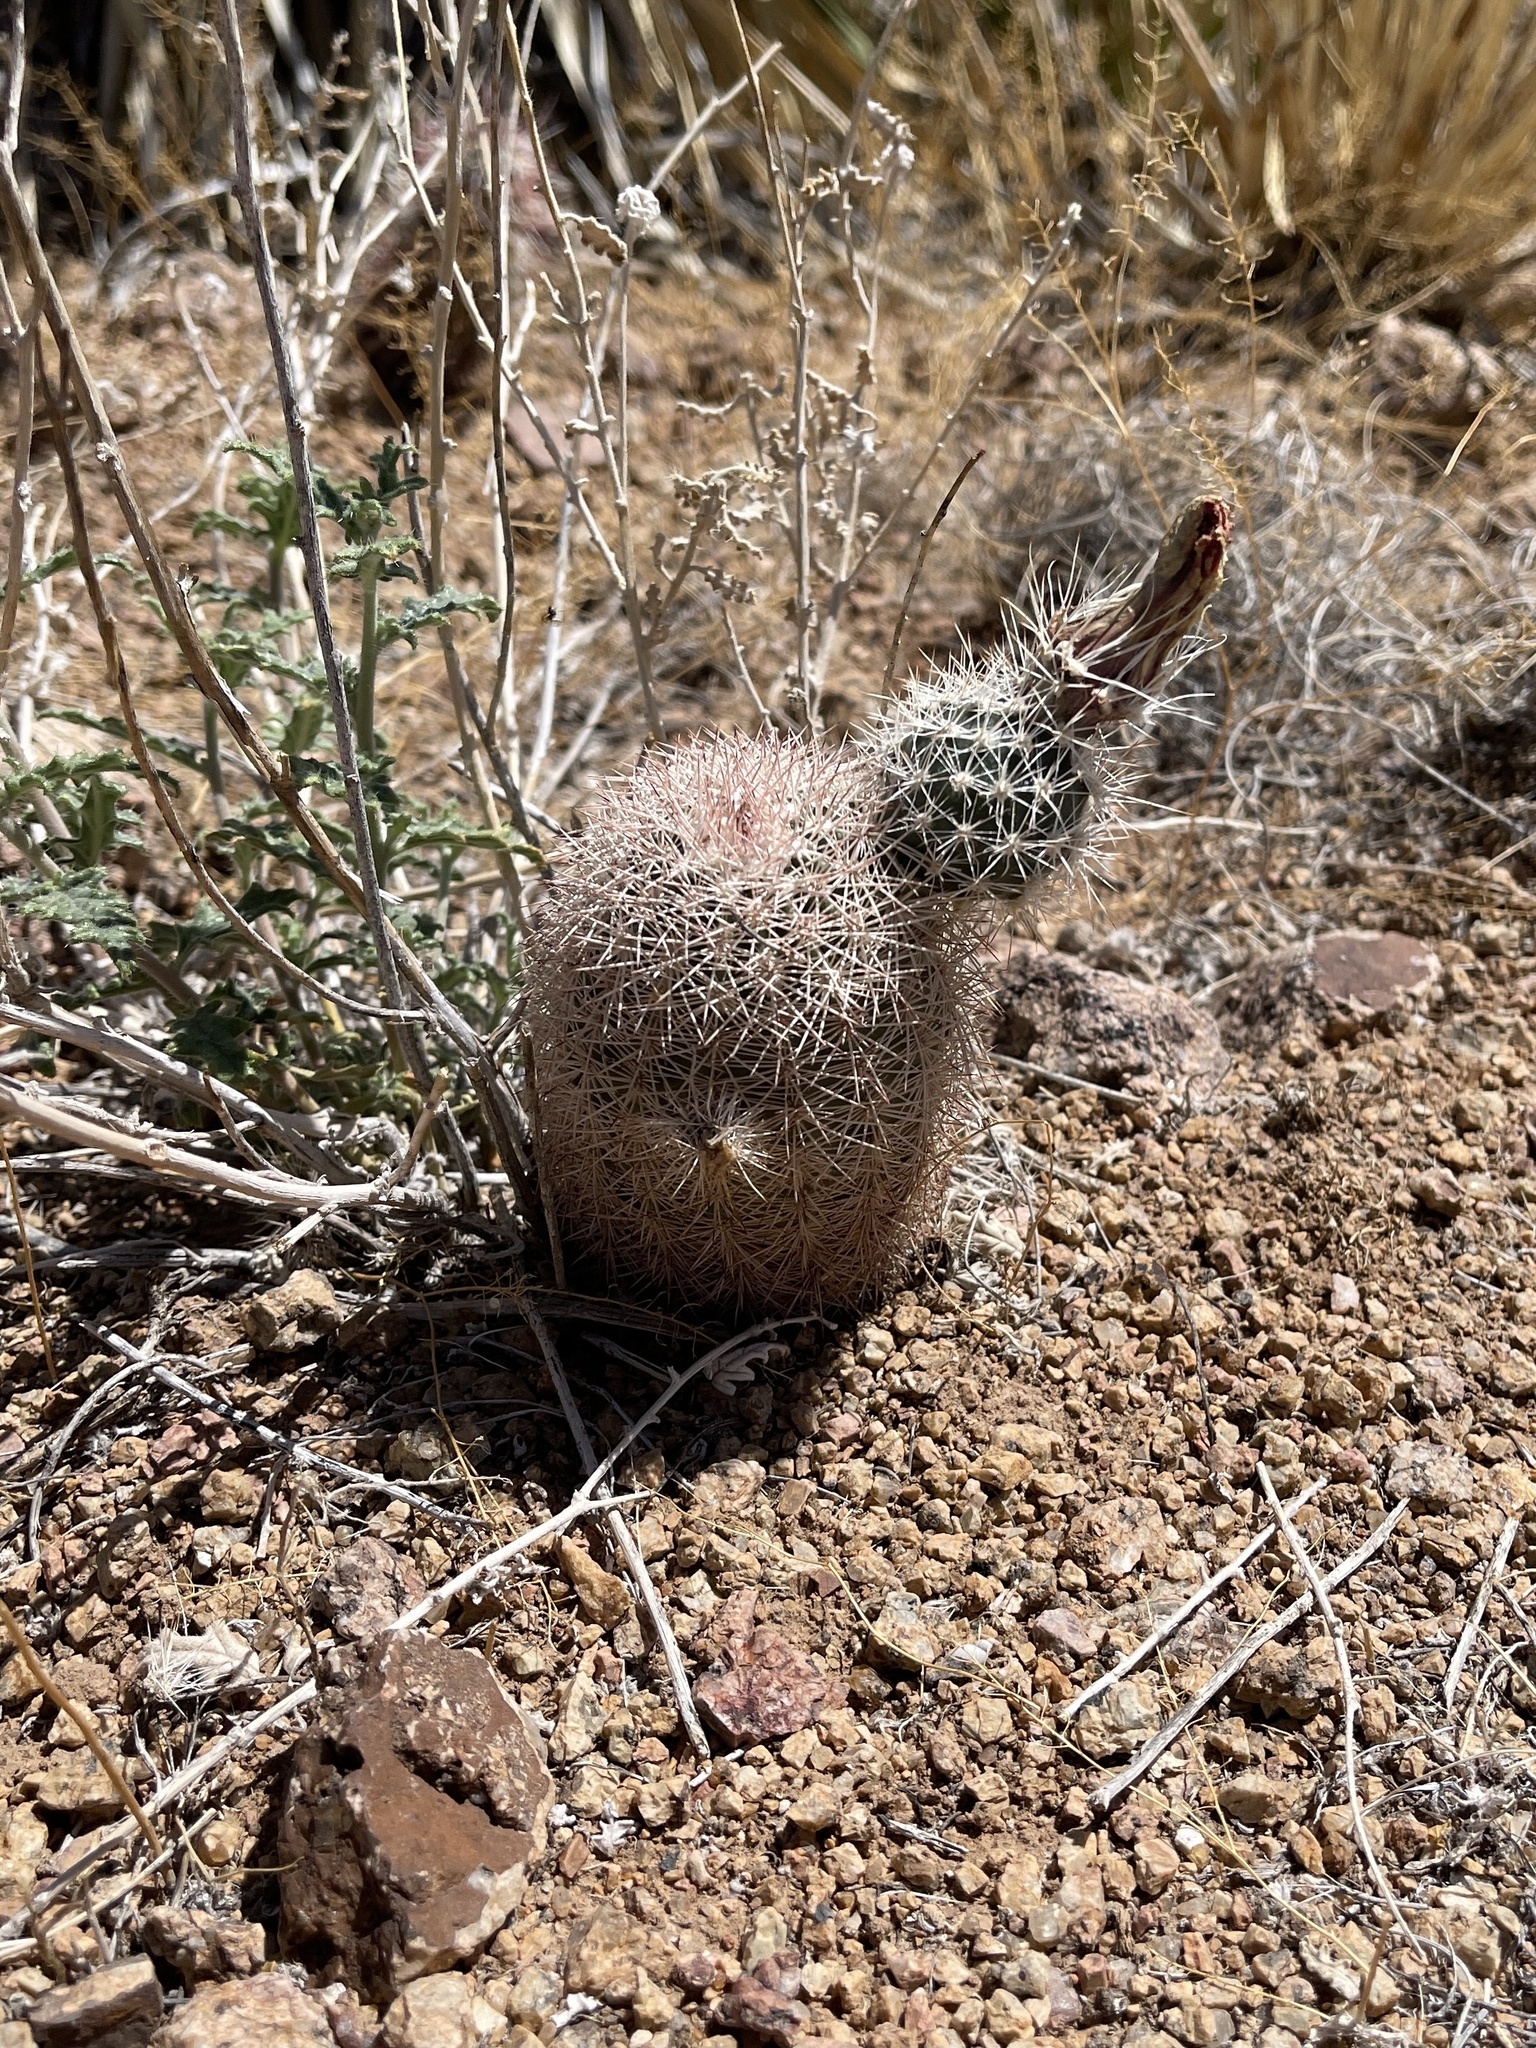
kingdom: Plantae
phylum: Tracheophyta
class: Magnoliopsida
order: Caryophyllales
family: Cactaceae
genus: Echinocereus
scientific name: Echinocereus dasyacanthus
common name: Spiny hedgehog cactus
